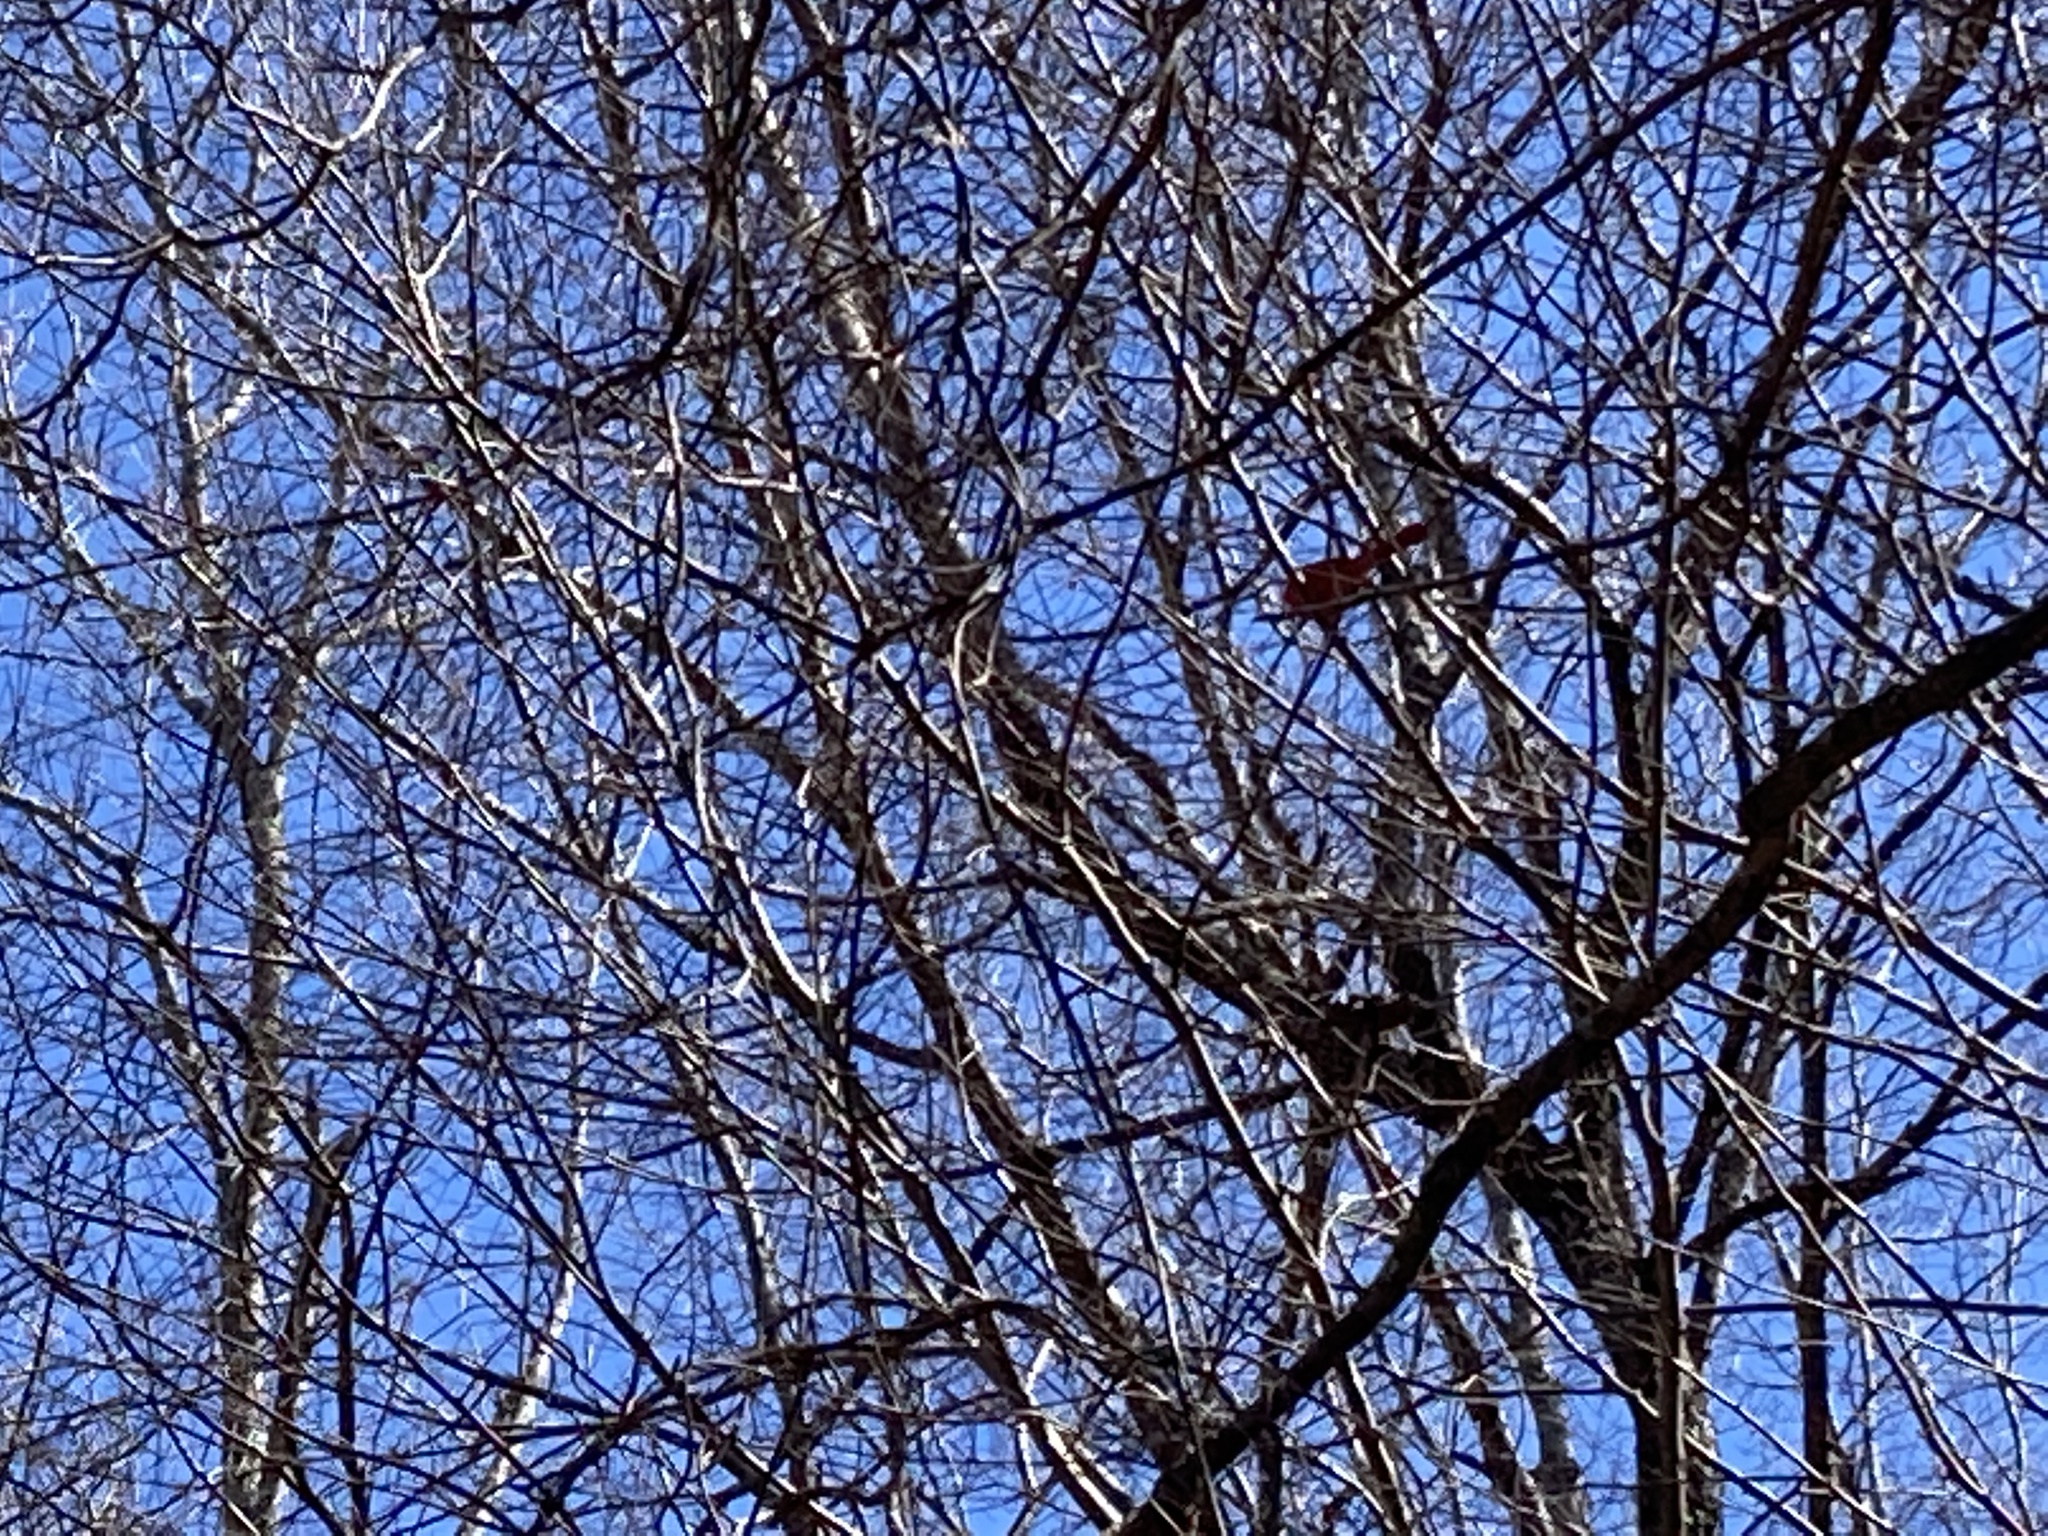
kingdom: Animalia
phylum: Chordata
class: Aves
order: Passeriformes
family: Cardinalidae
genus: Cardinalis
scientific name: Cardinalis cardinalis
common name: Northern cardinal
